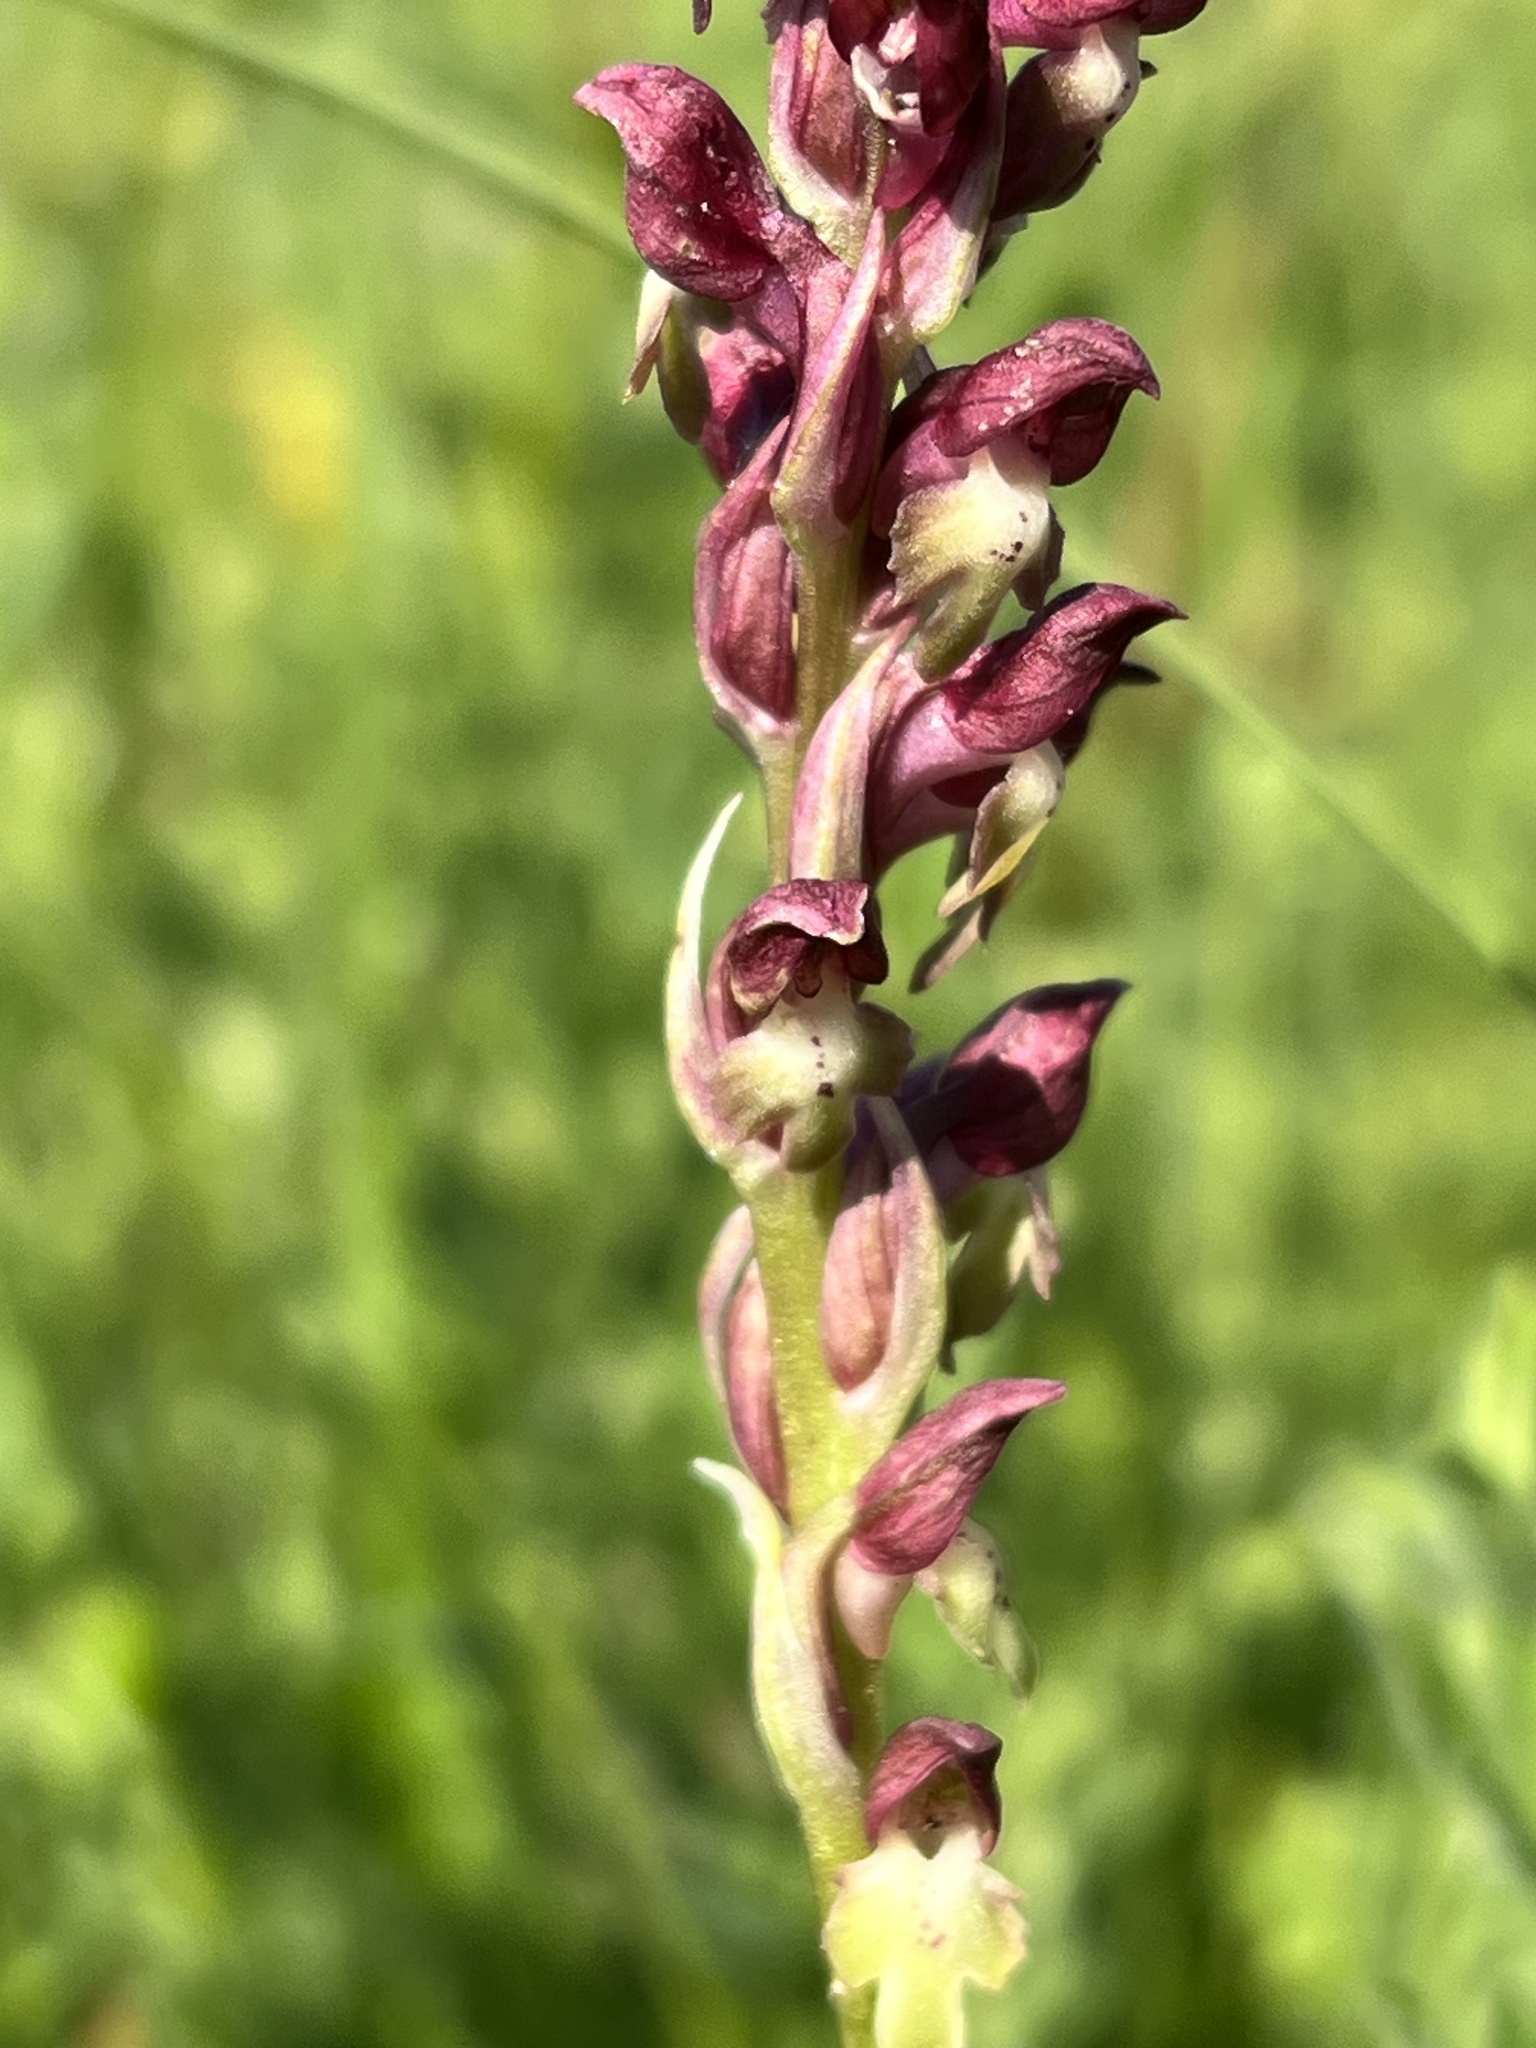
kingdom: Plantae
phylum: Tracheophyta
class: Liliopsida
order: Asparagales
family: Orchidaceae
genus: Anacamptis
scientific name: Anacamptis coriophora
